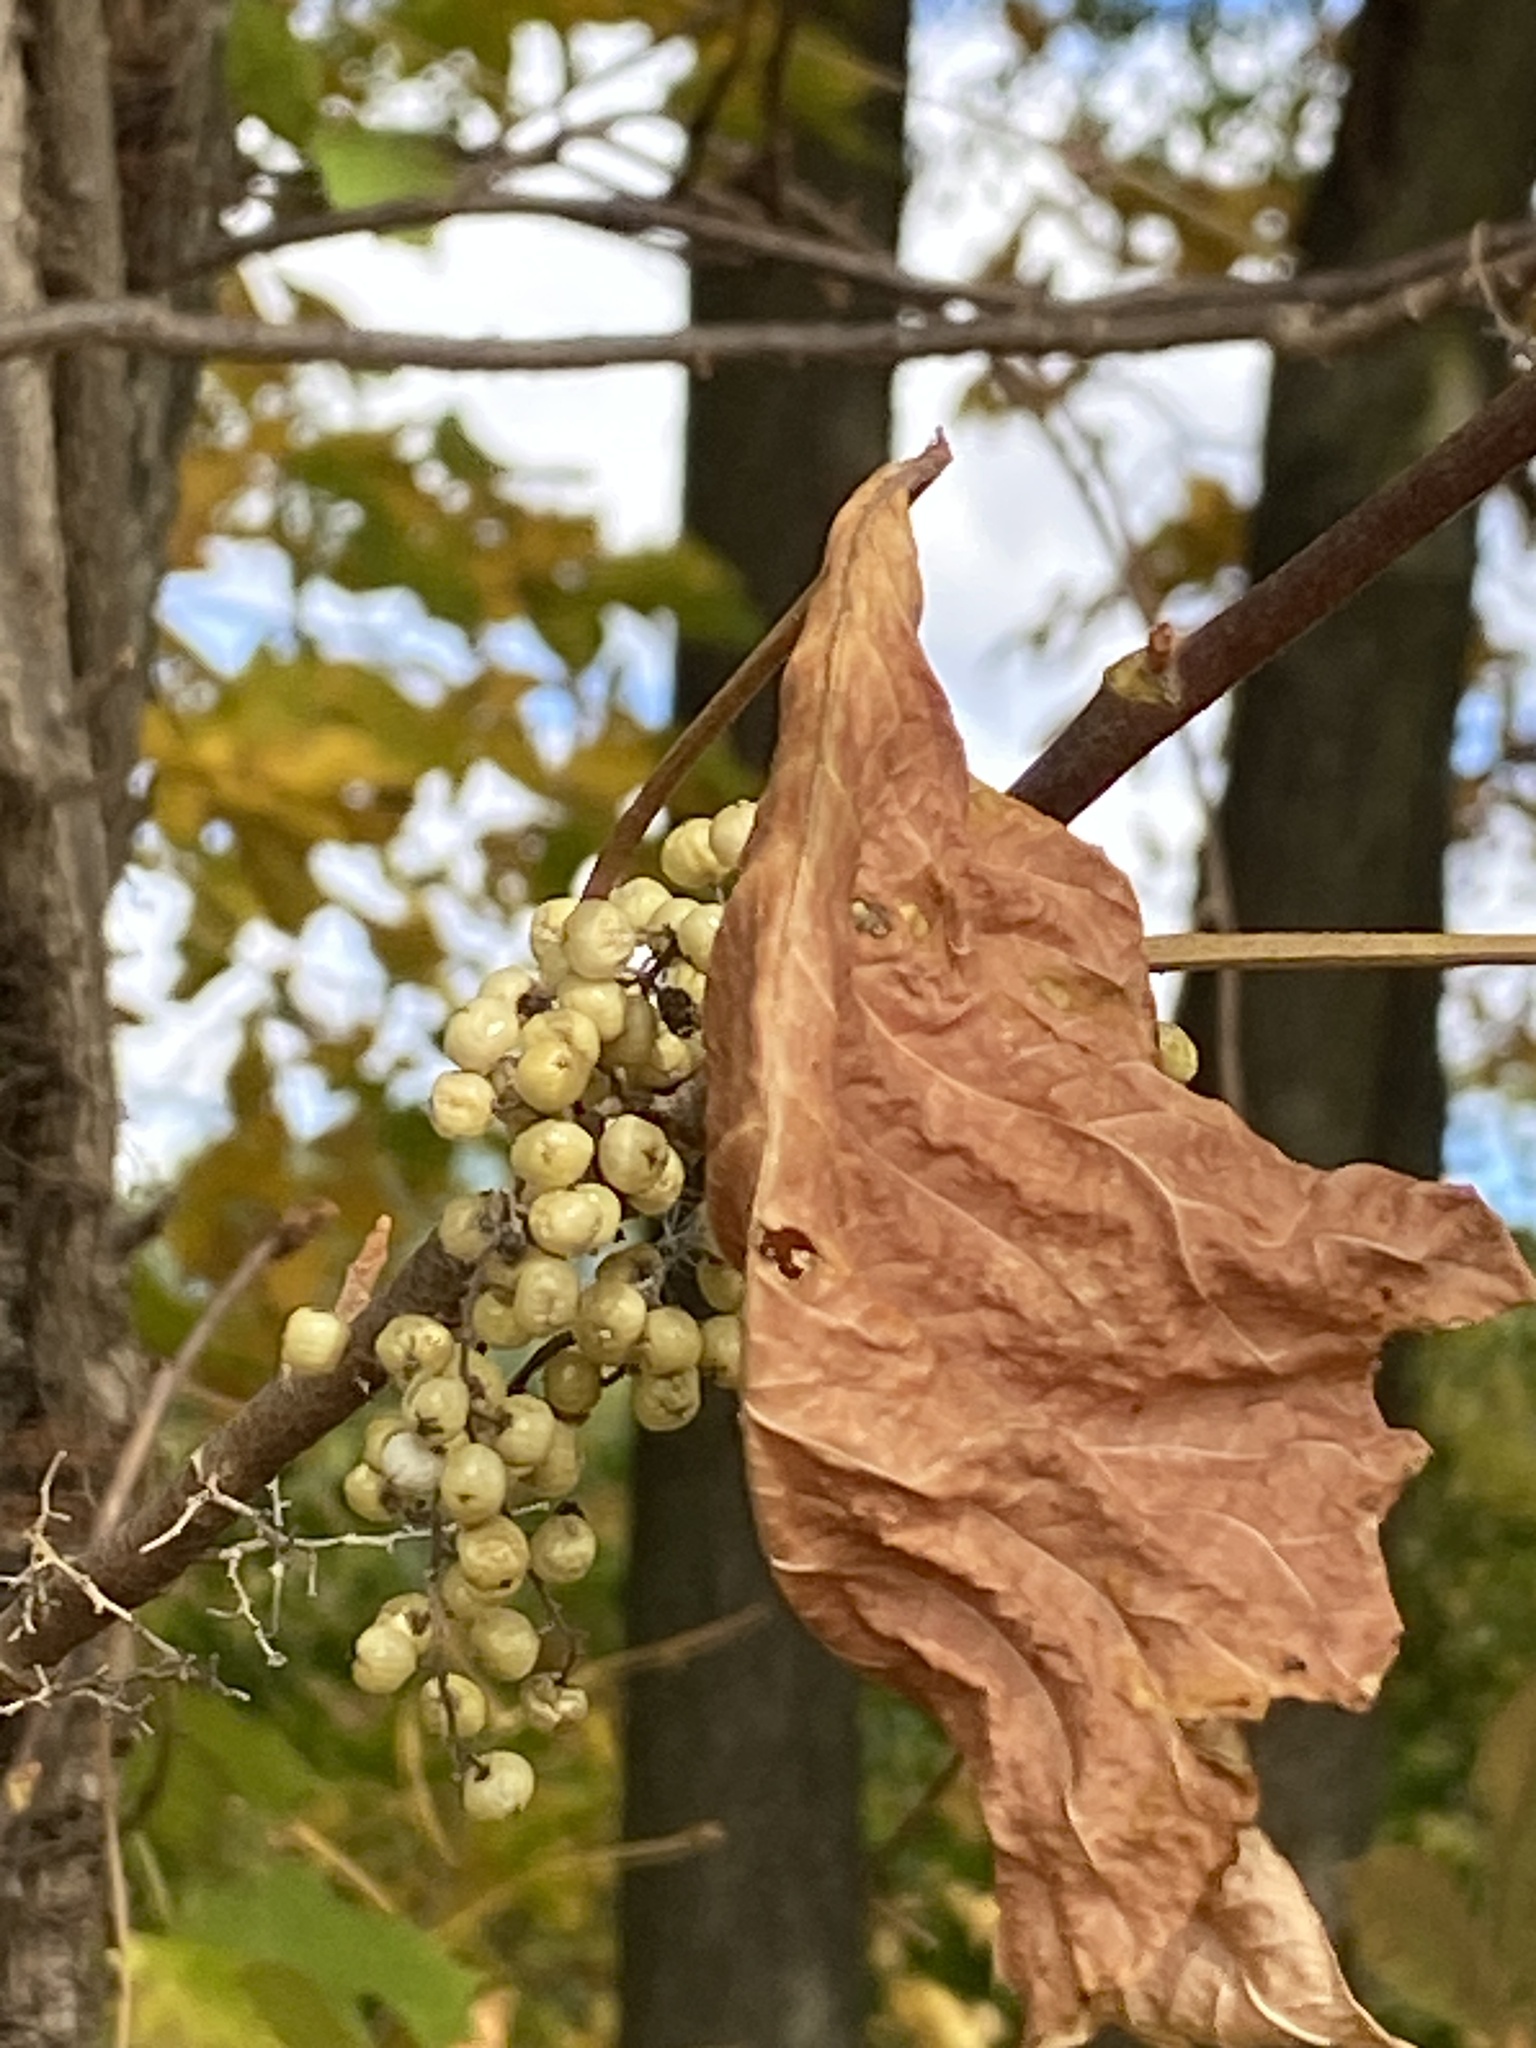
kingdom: Plantae
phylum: Tracheophyta
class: Magnoliopsida
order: Sapindales
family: Anacardiaceae
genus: Toxicodendron
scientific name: Toxicodendron radicans
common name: Poison ivy
